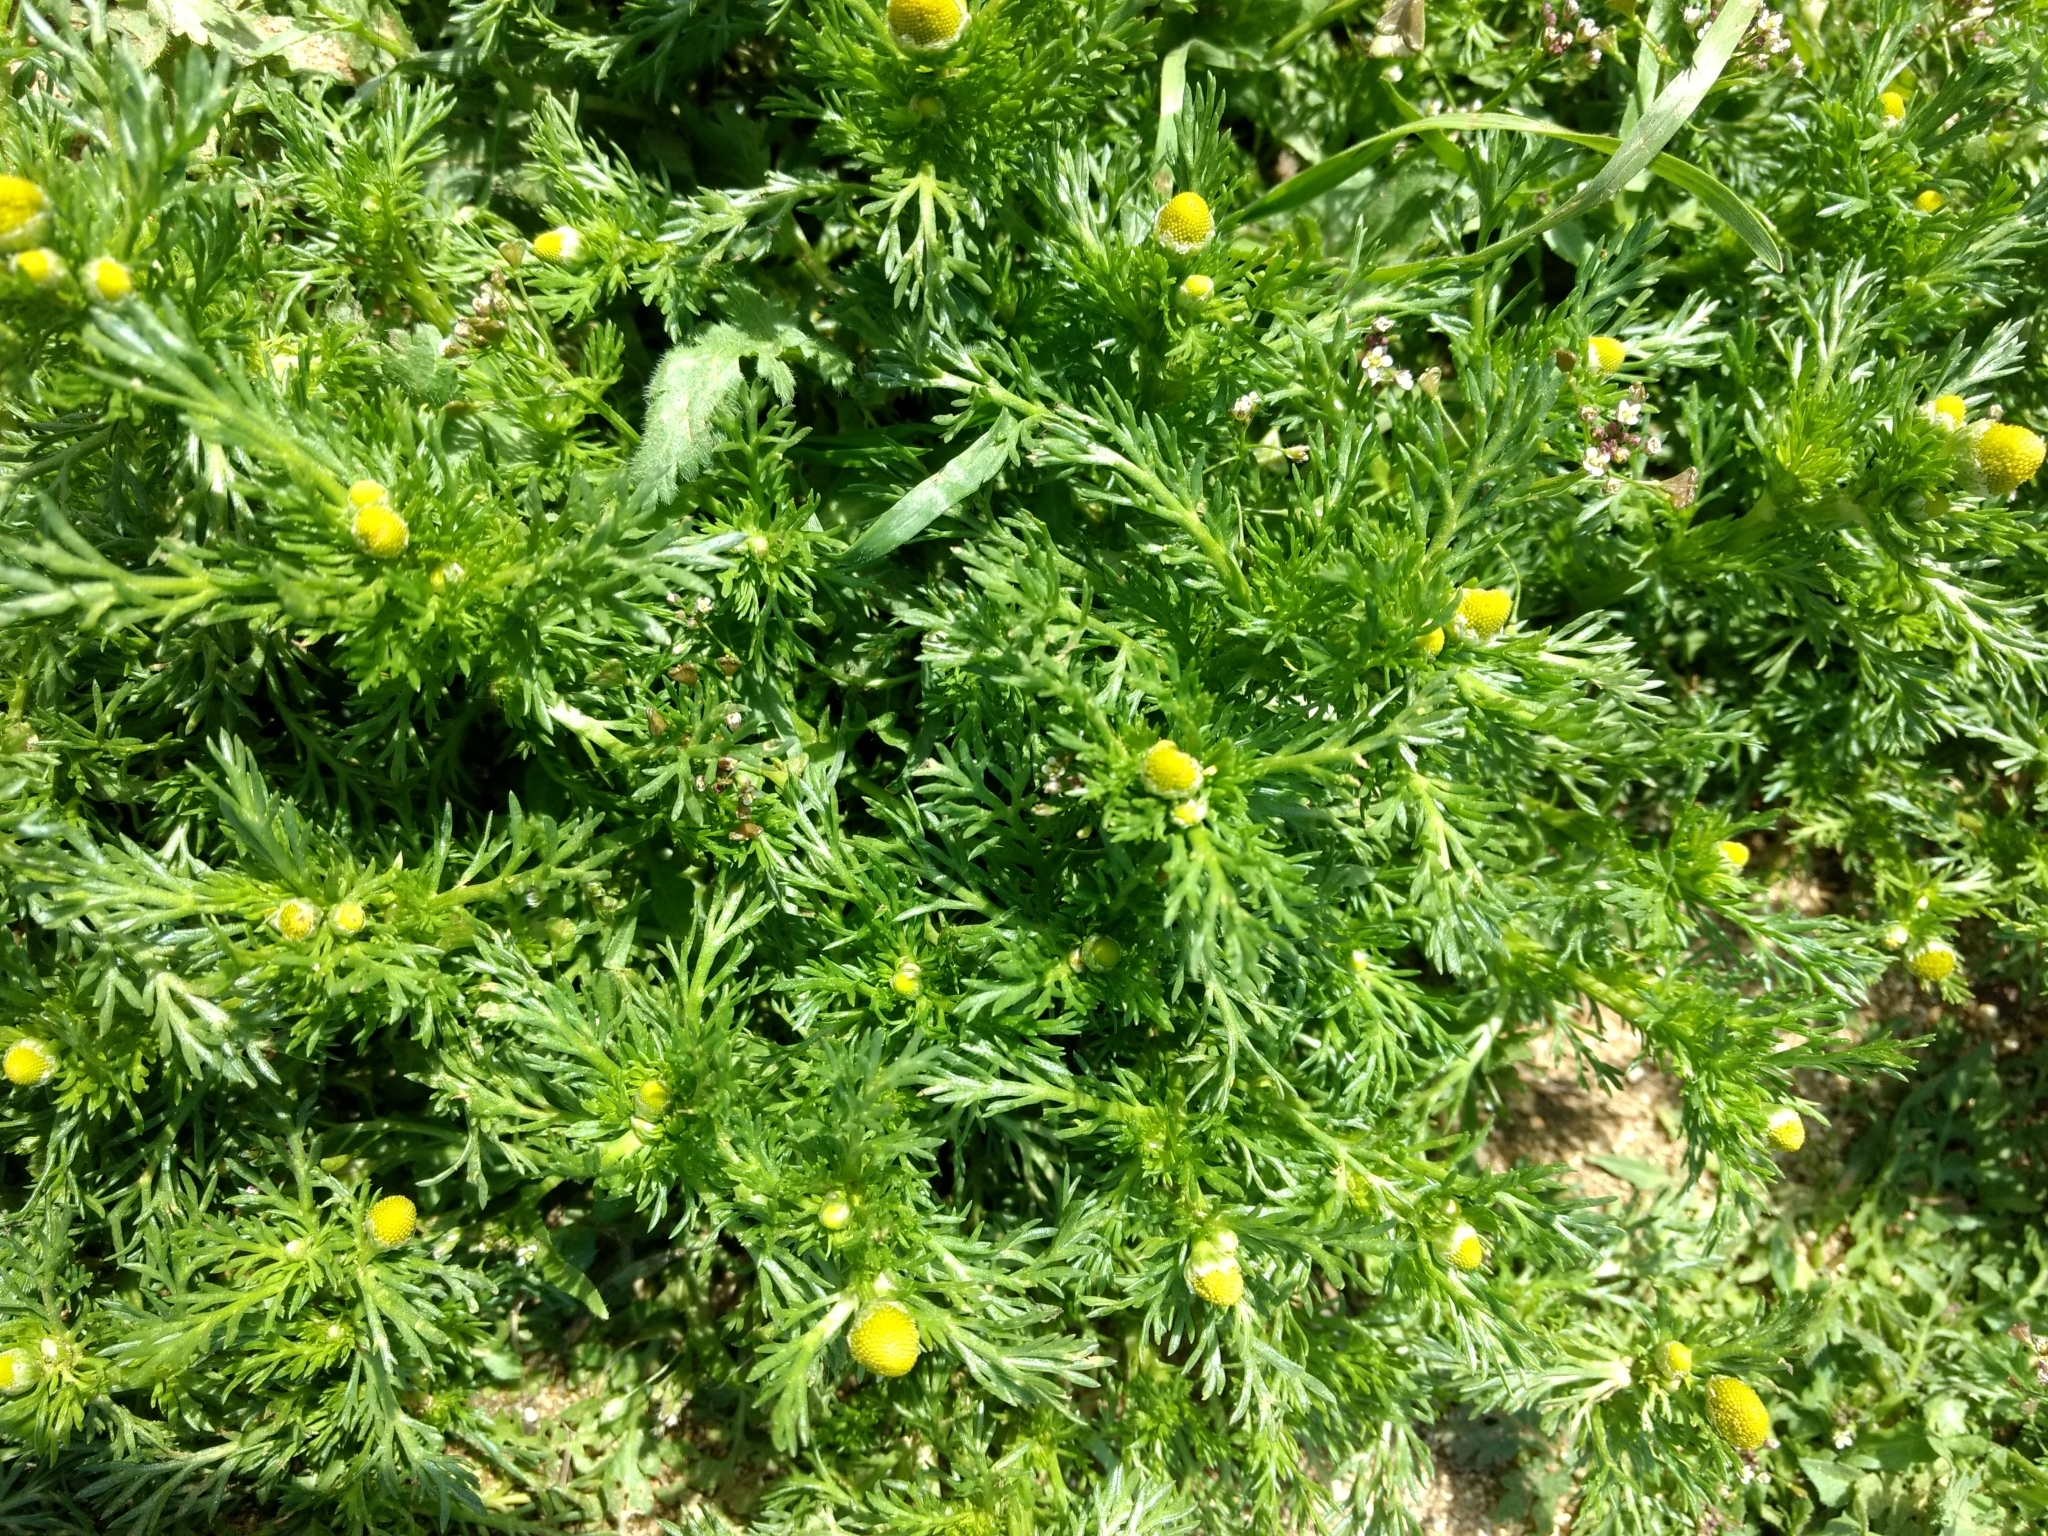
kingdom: Plantae
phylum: Tracheophyta
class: Magnoliopsida
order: Asterales
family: Asteraceae
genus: Matricaria
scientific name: Matricaria discoidea
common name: Disc mayweed
